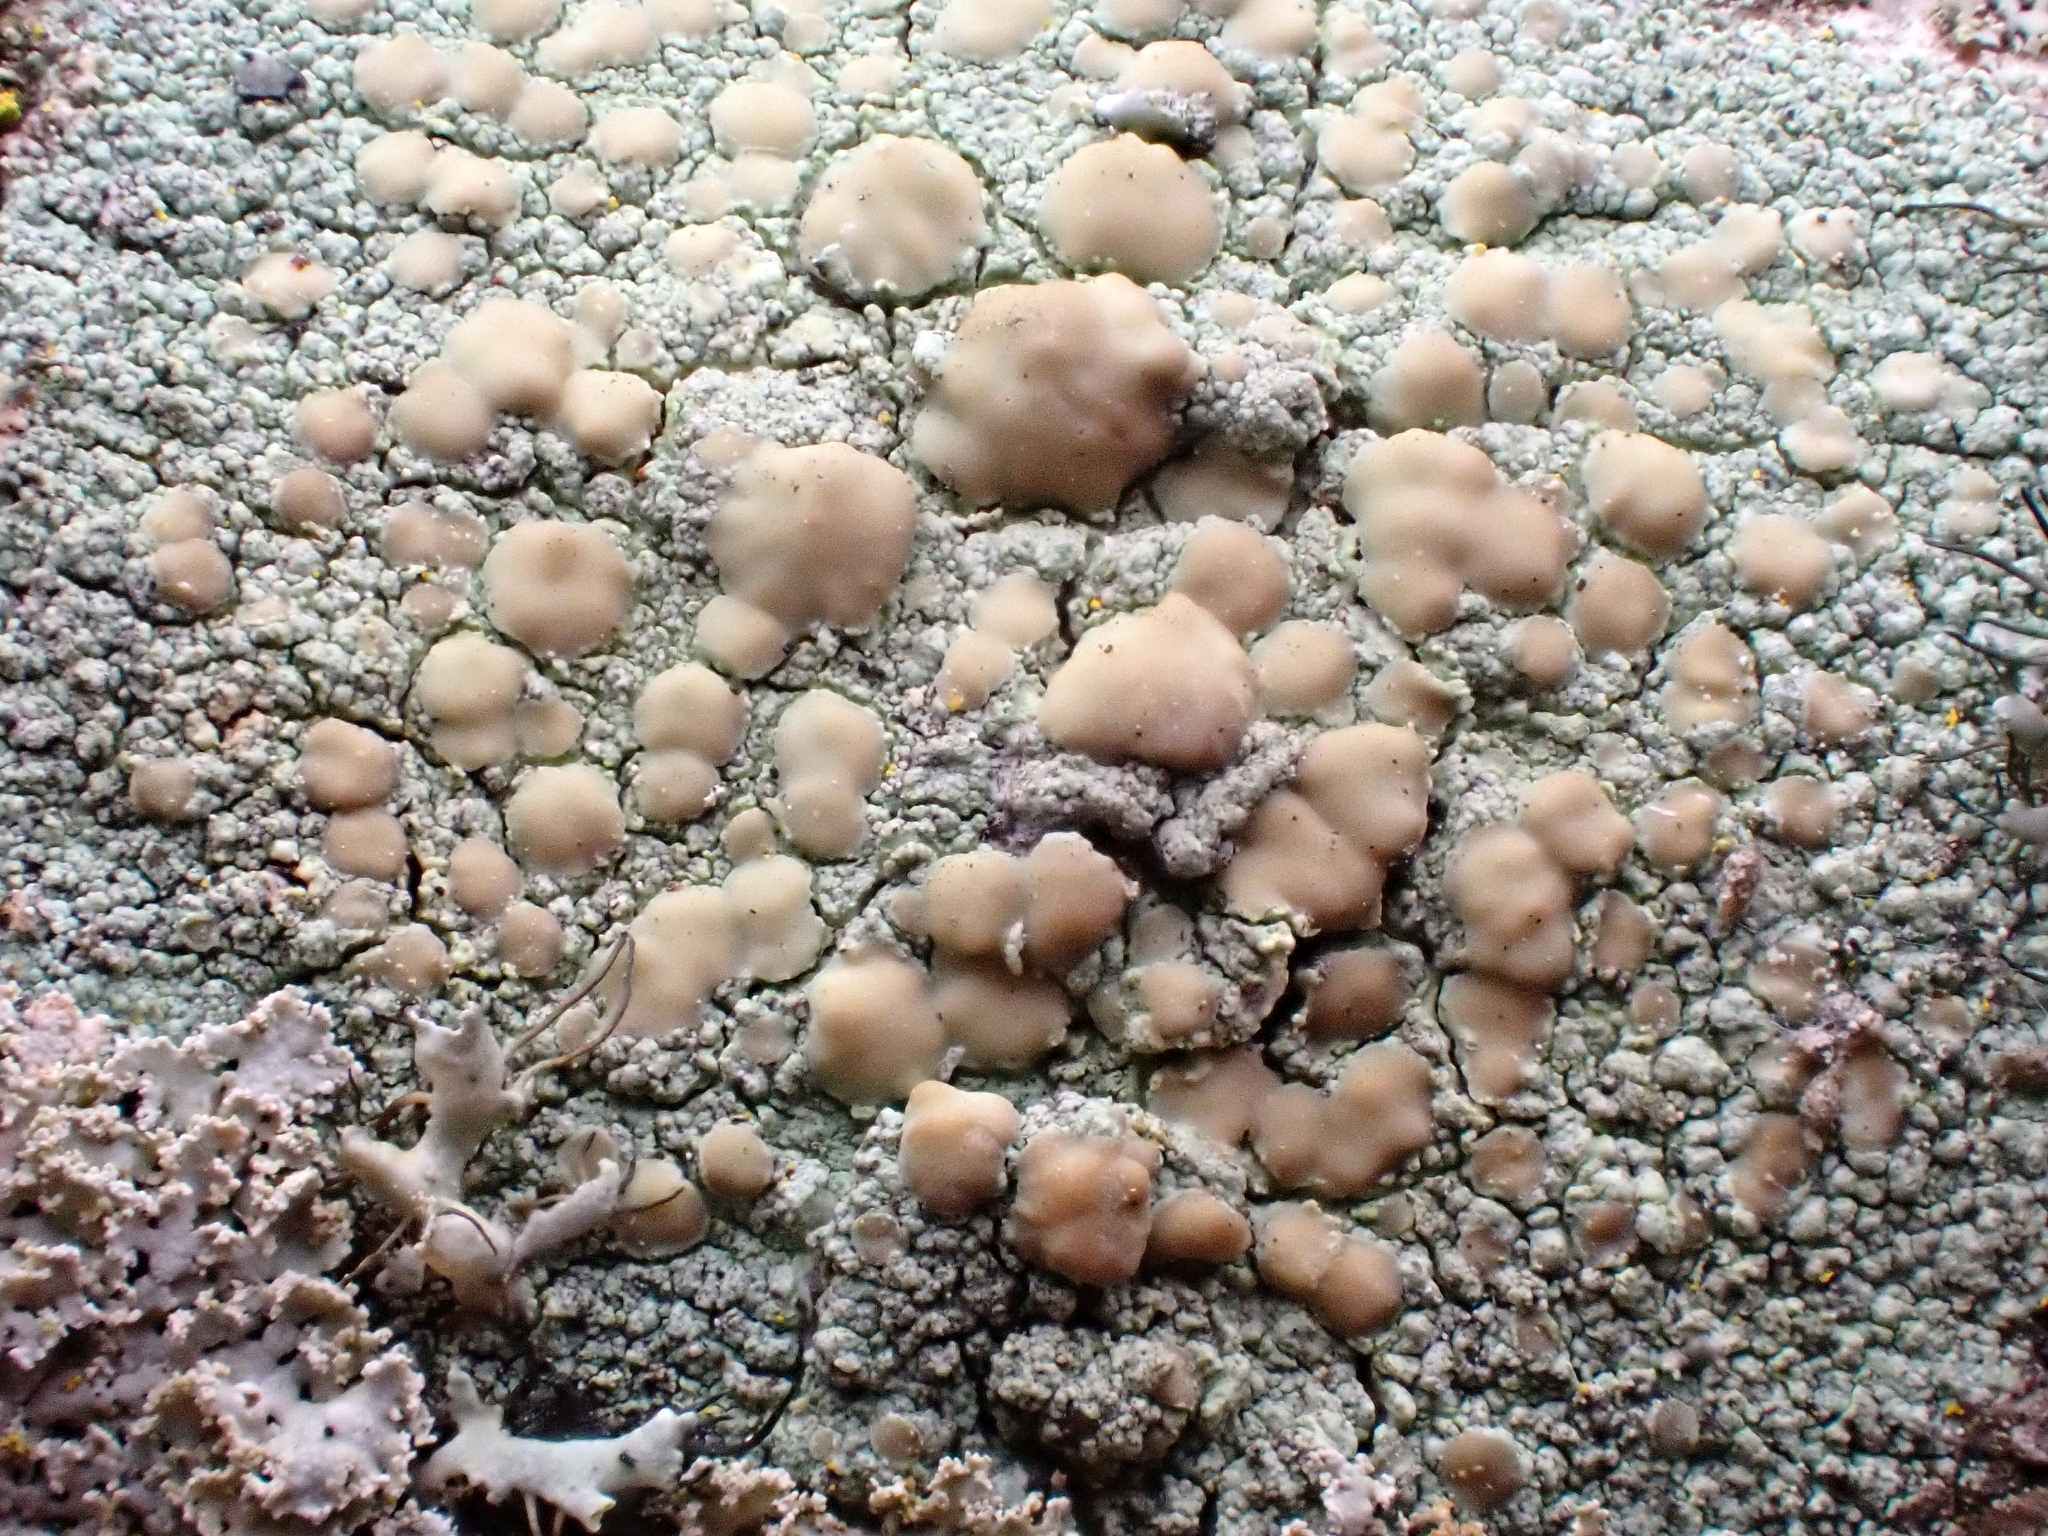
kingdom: Fungi
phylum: Ascomycota
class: Lecanoromycetes
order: Lecanorales
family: Lecanoraceae
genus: Lecanora
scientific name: Lecanora symmicta
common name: Fused rim lichen
